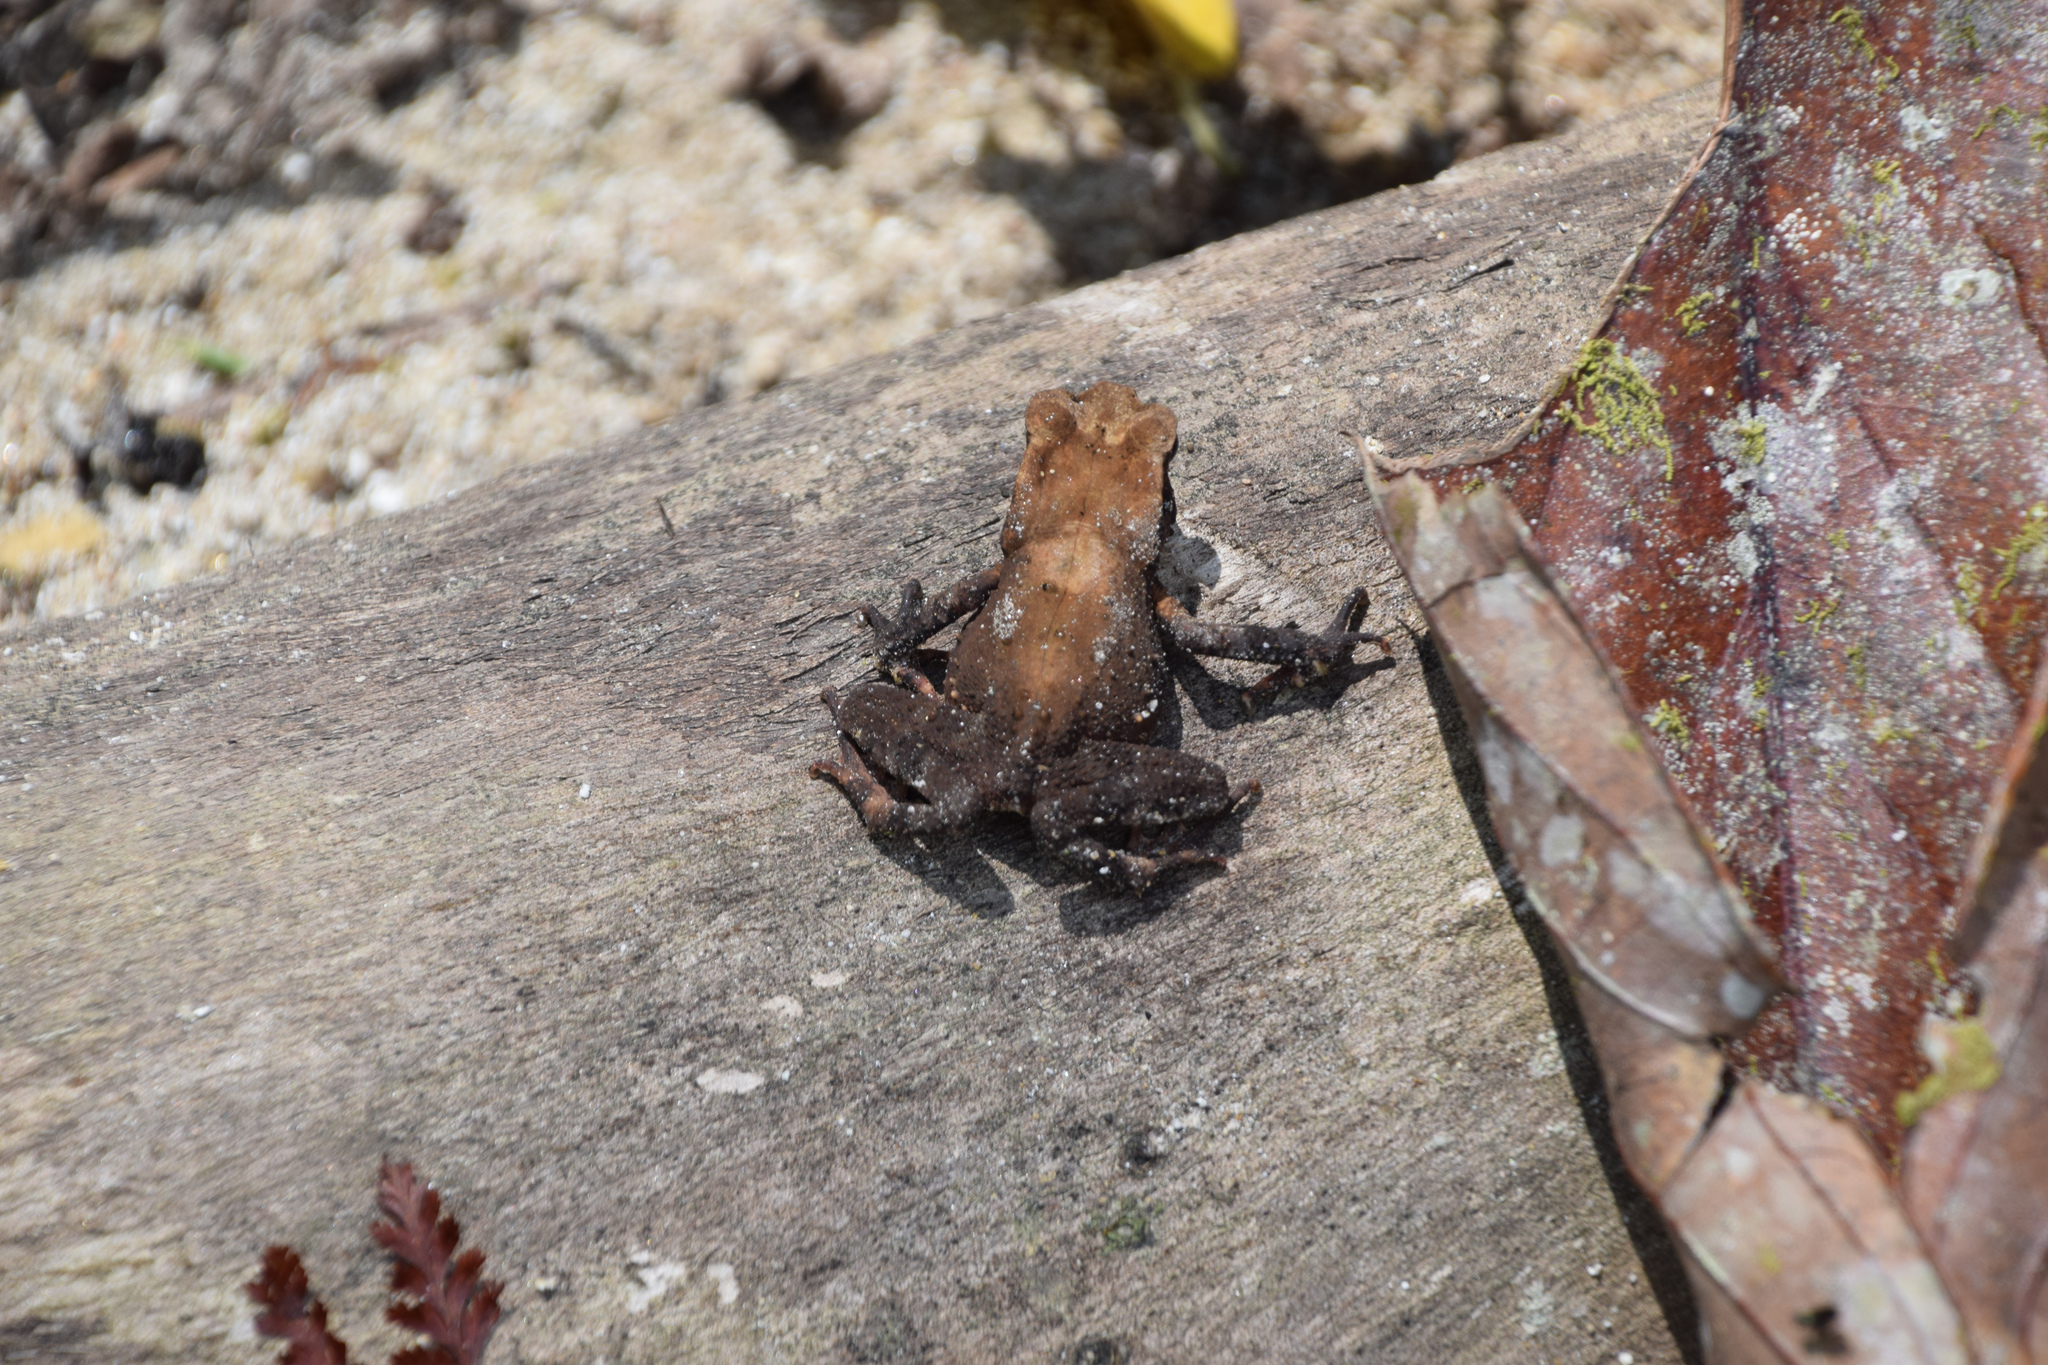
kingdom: Animalia
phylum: Chordata
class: Amphibia
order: Anura
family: Bufonidae
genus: Ingerophrynus
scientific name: Ingerophrynus celebensis
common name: Celebes toad
